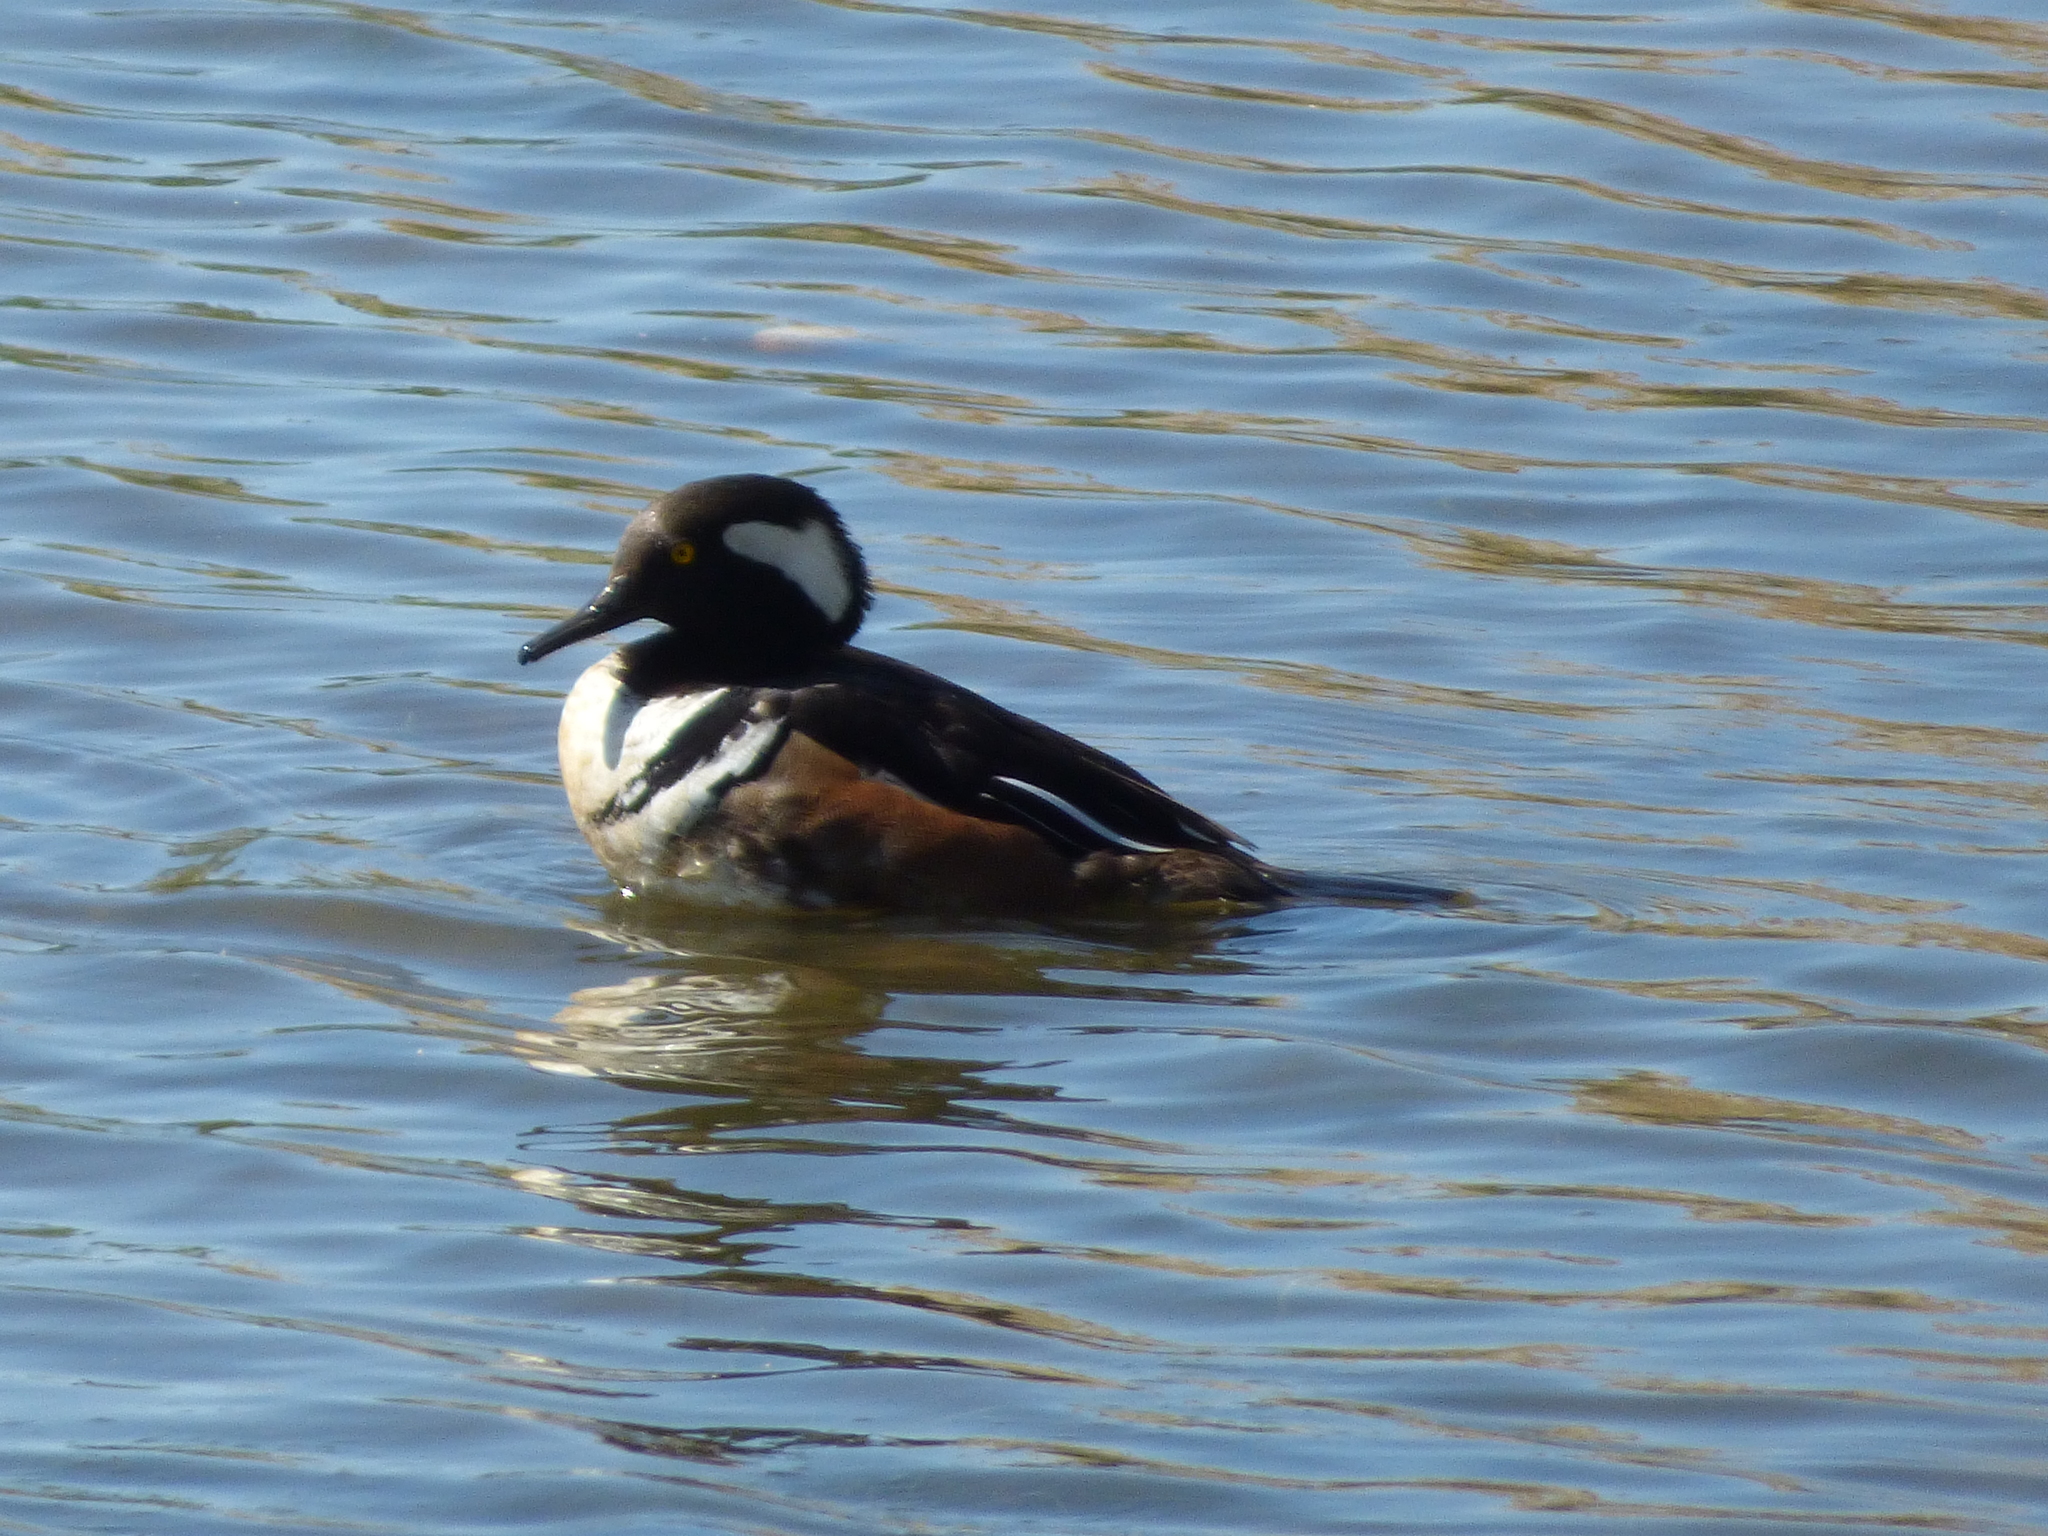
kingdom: Animalia
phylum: Chordata
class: Aves
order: Anseriformes
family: Anatidae
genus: Lophodytes
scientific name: Lophodytes cucullatus
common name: Hooded merganser
